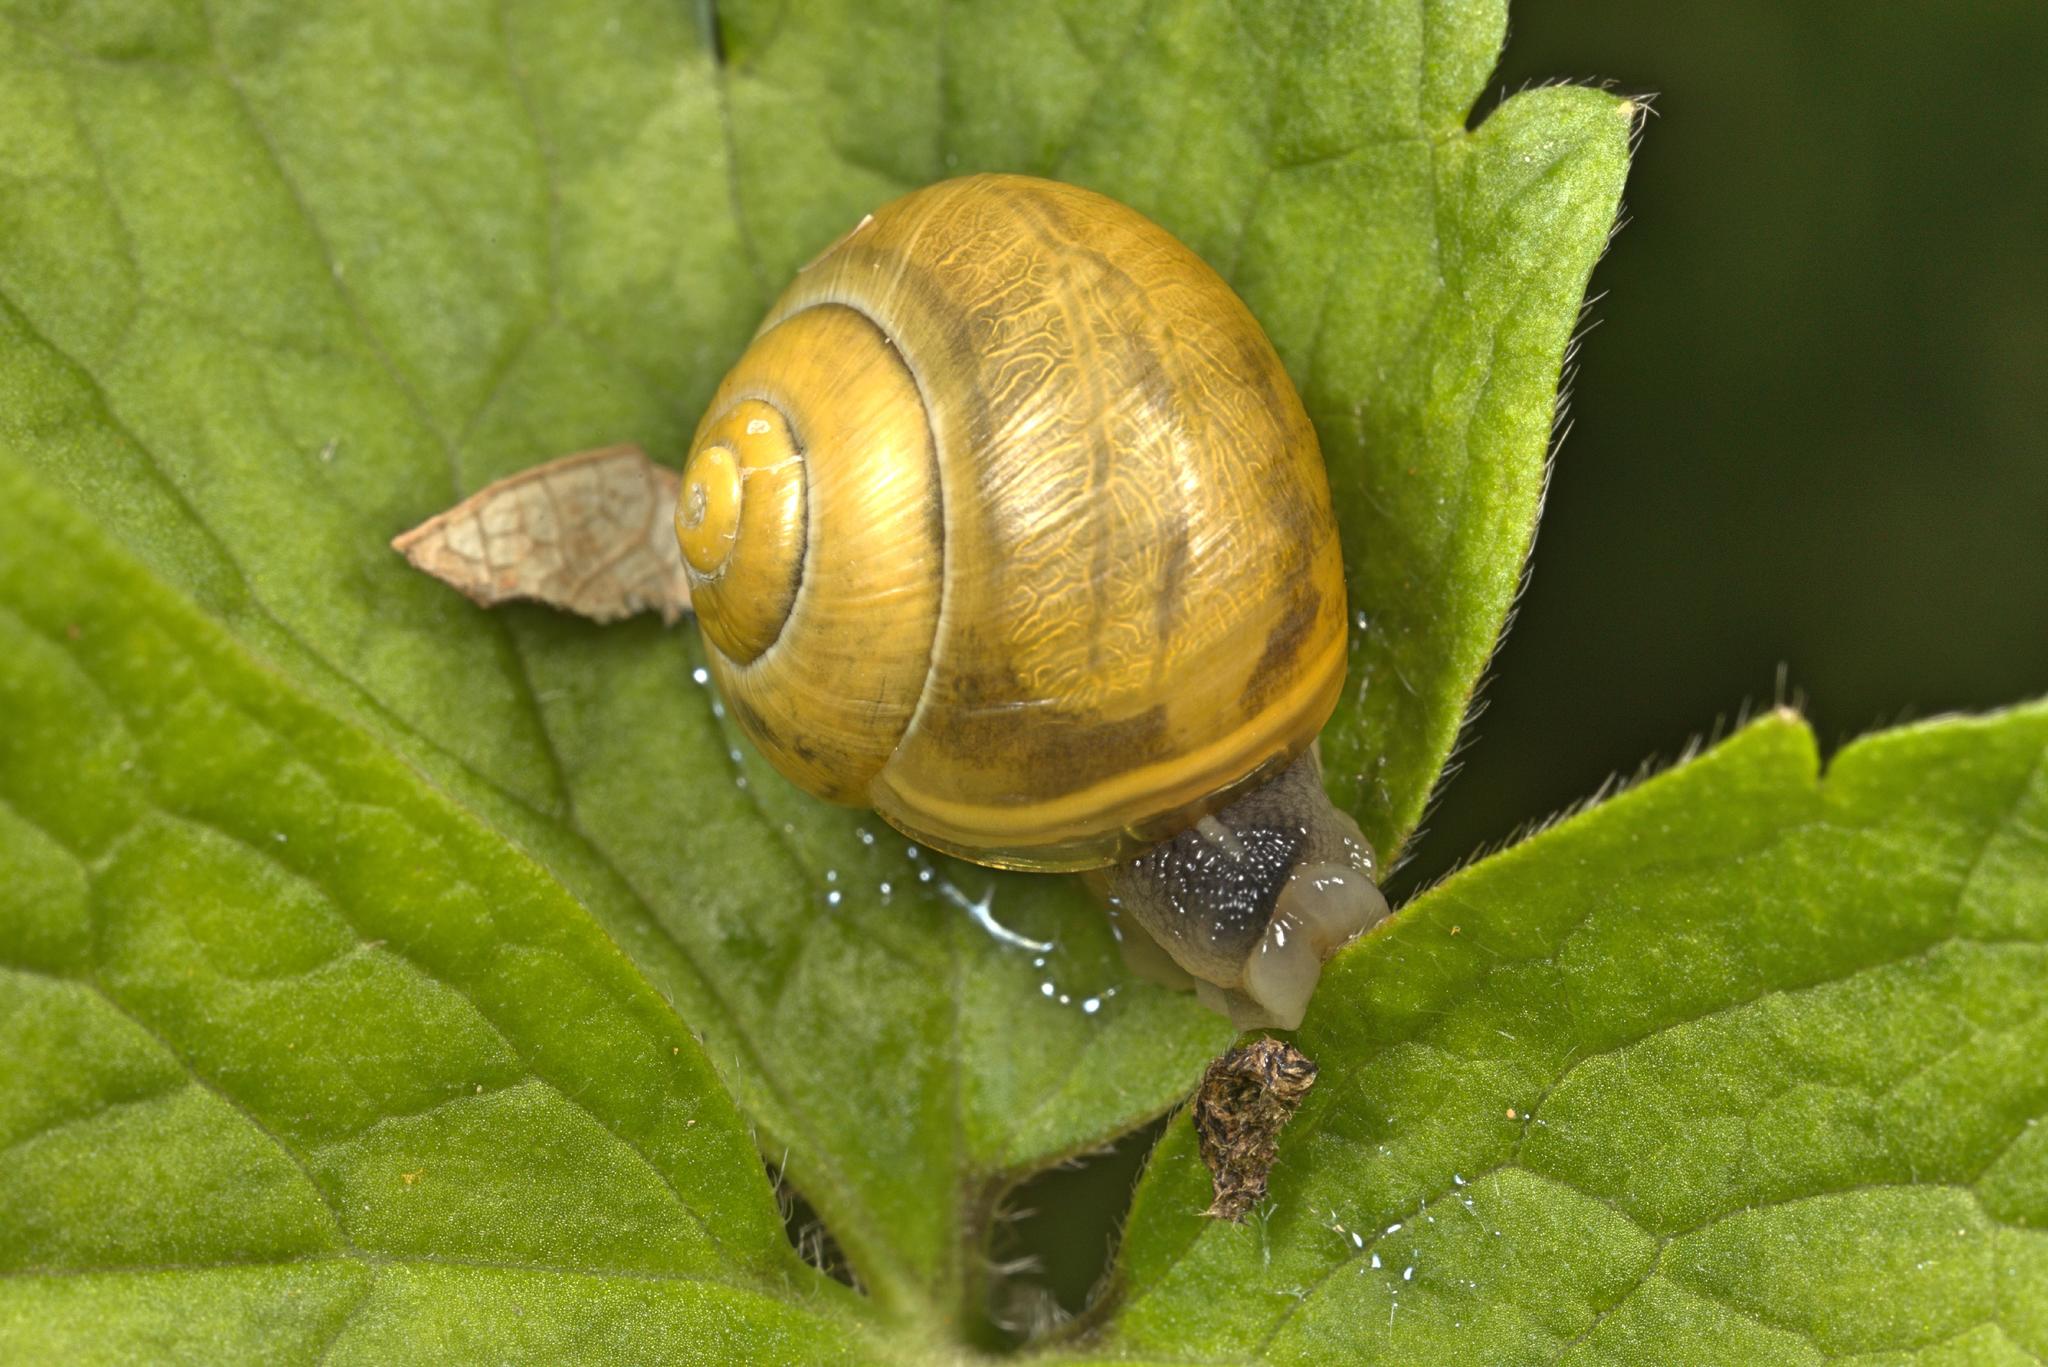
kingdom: Animalia
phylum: Mollusca
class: Gastropoda
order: Stylommatophora
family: Helicidae
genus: Cepaea
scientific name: Cepaea hortensis
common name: White-lip gardensnail
